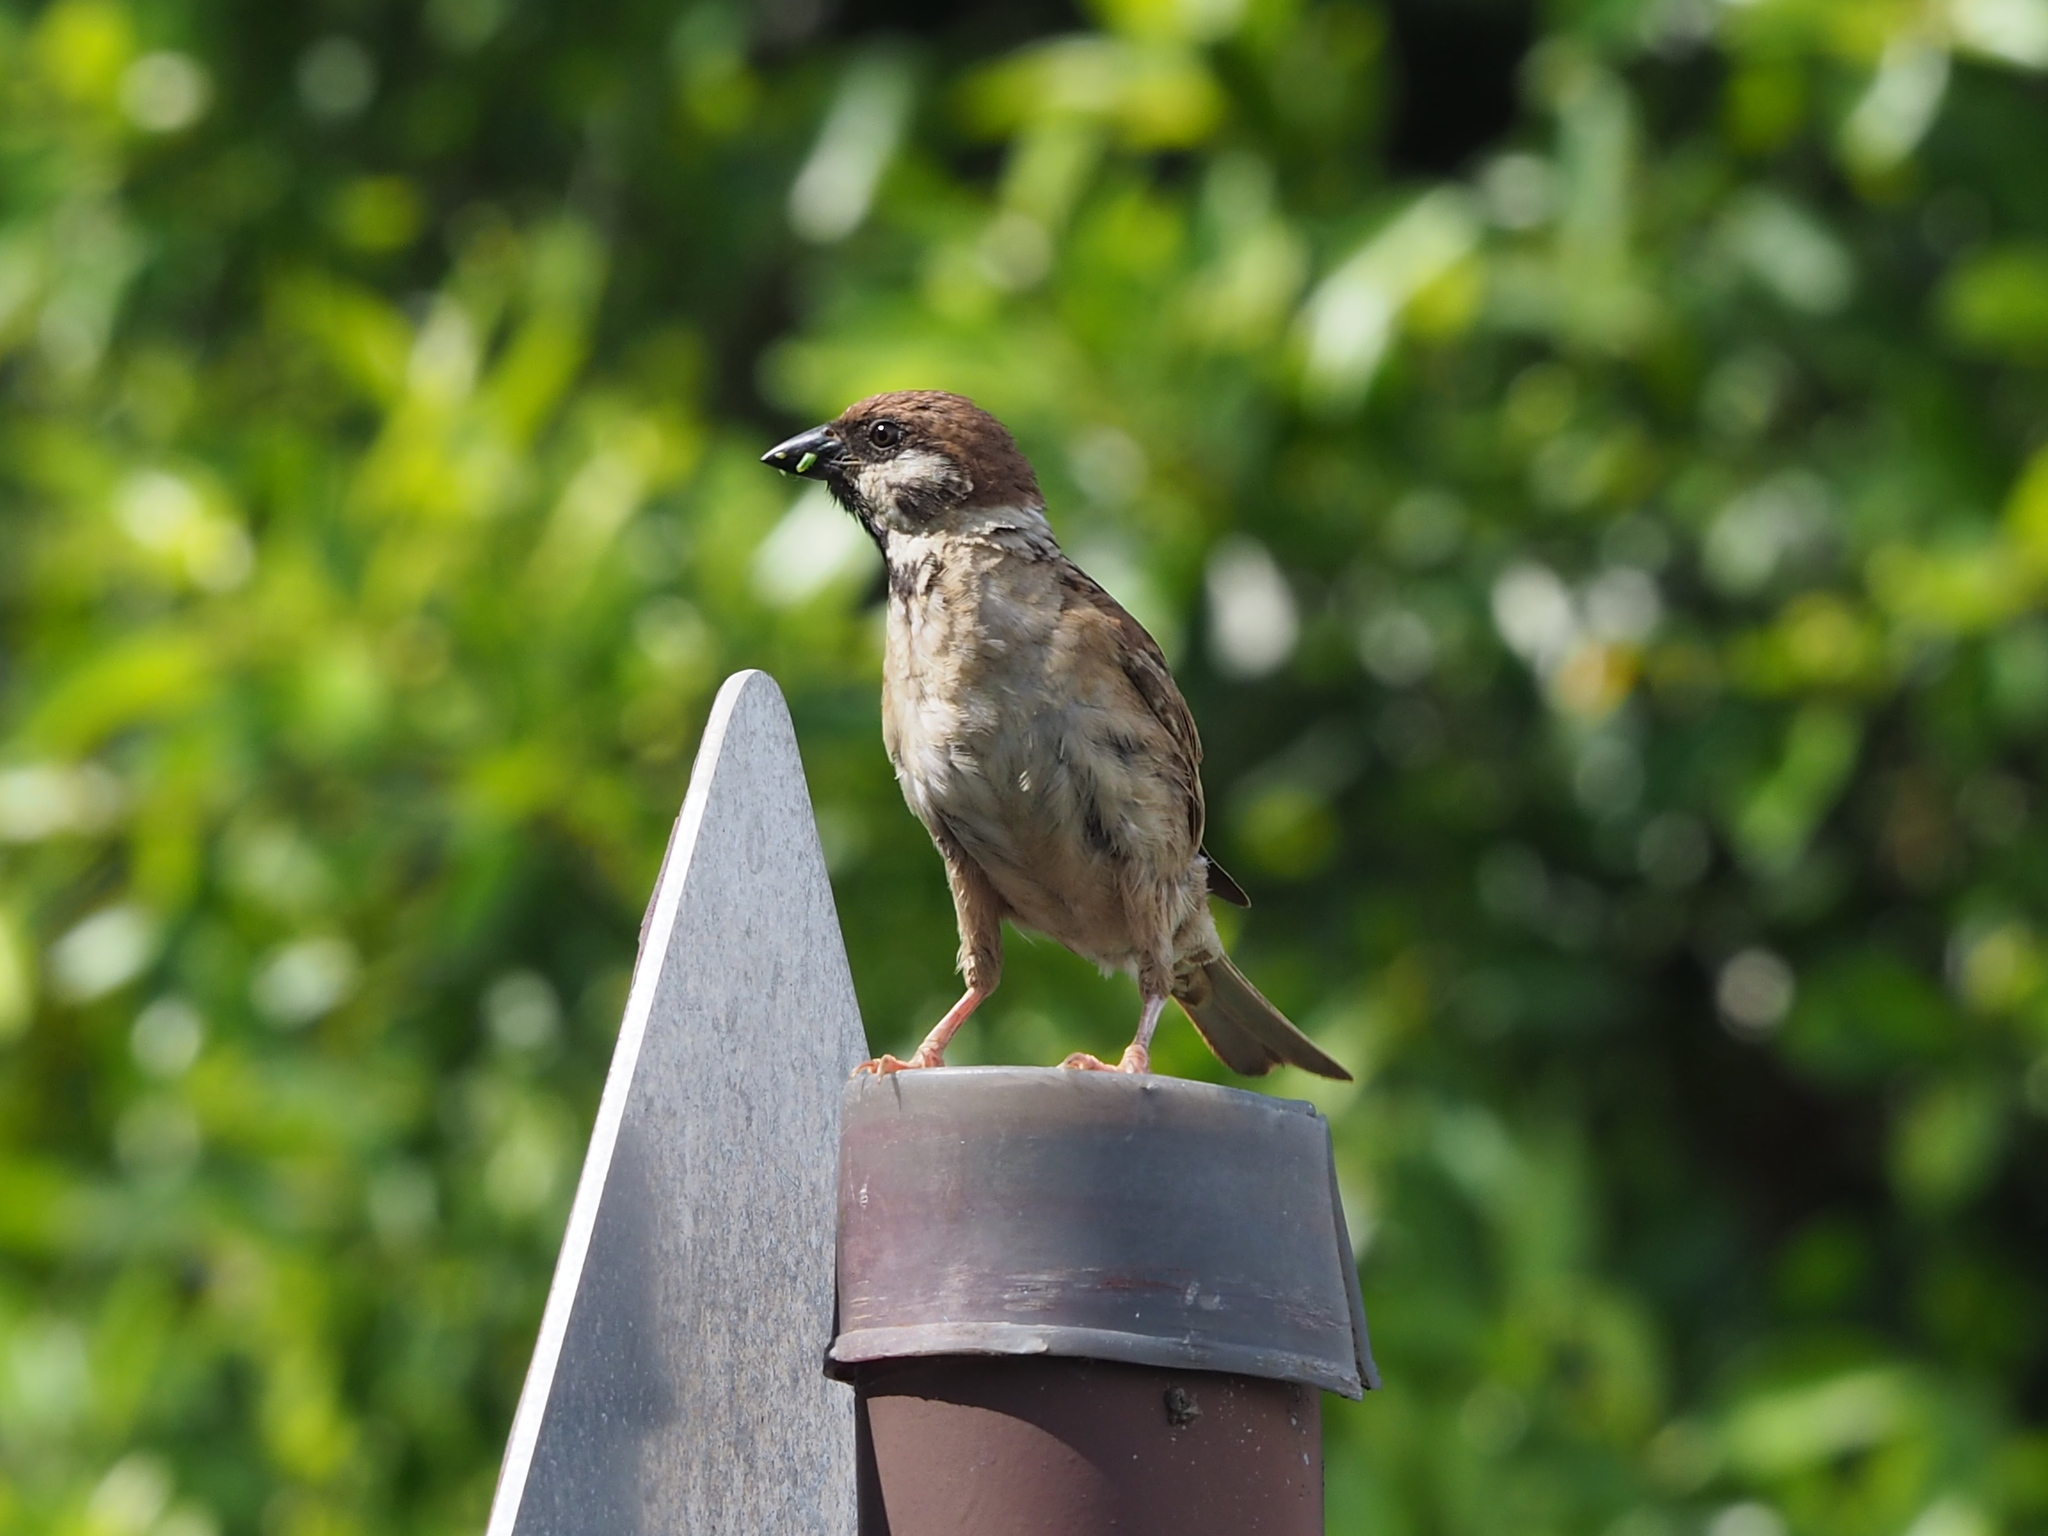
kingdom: Animalia
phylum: Chordata
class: Aves
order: Passeriformes
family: Passeridae
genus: Passer
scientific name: Passer montanus
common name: Eurasian tree sparrow
